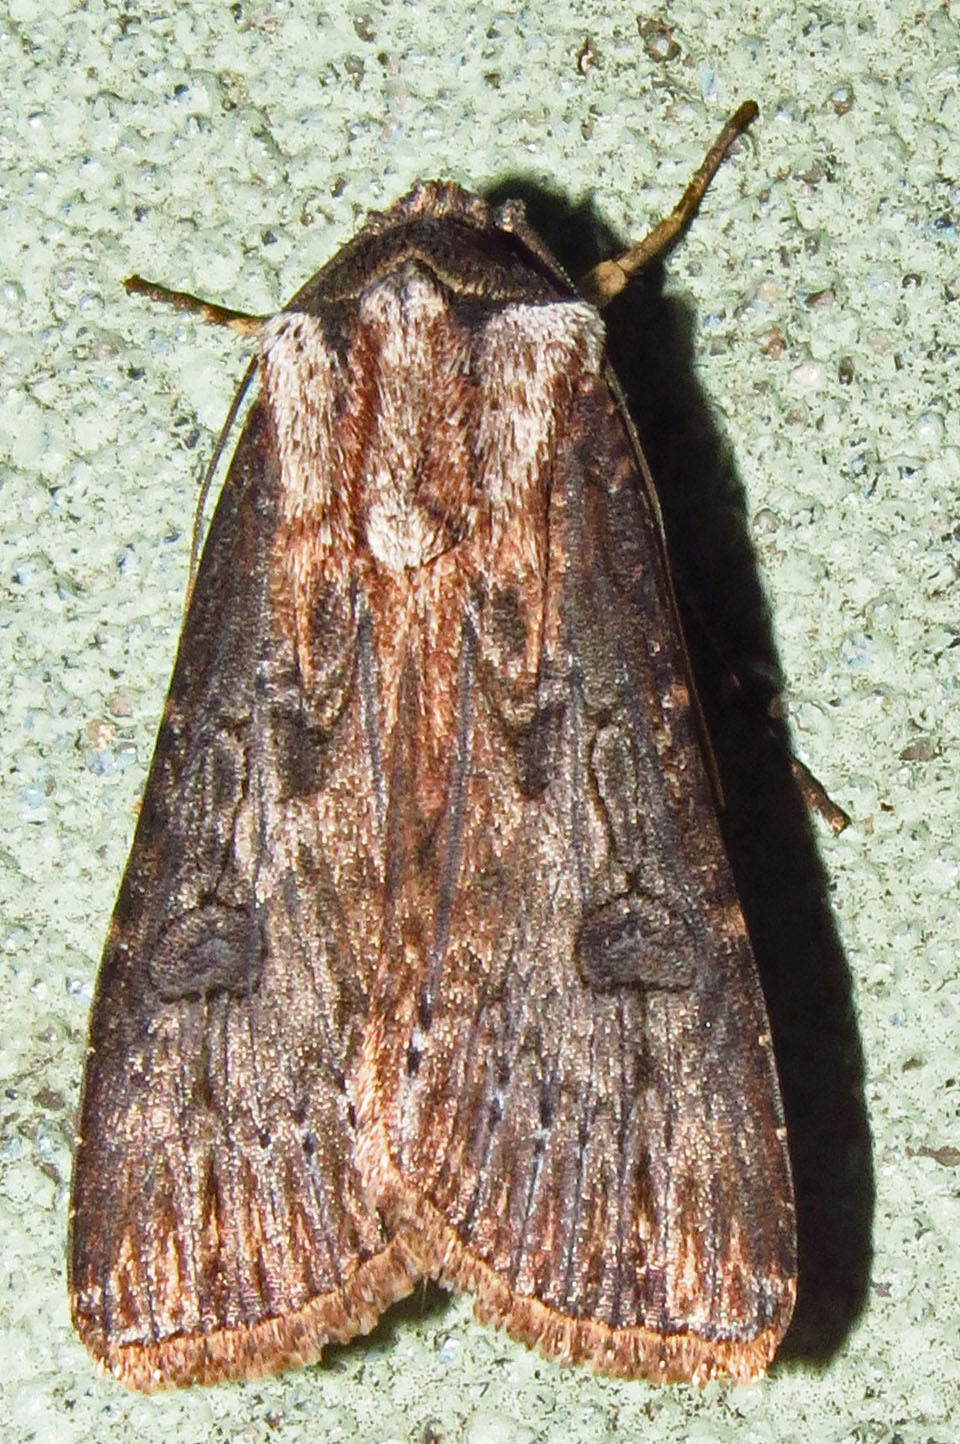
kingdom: Animalia
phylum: Arthropoda
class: Insecta
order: Lepidoptera
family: Noctuidae
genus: Agrotis
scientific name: Agrotis malefida
